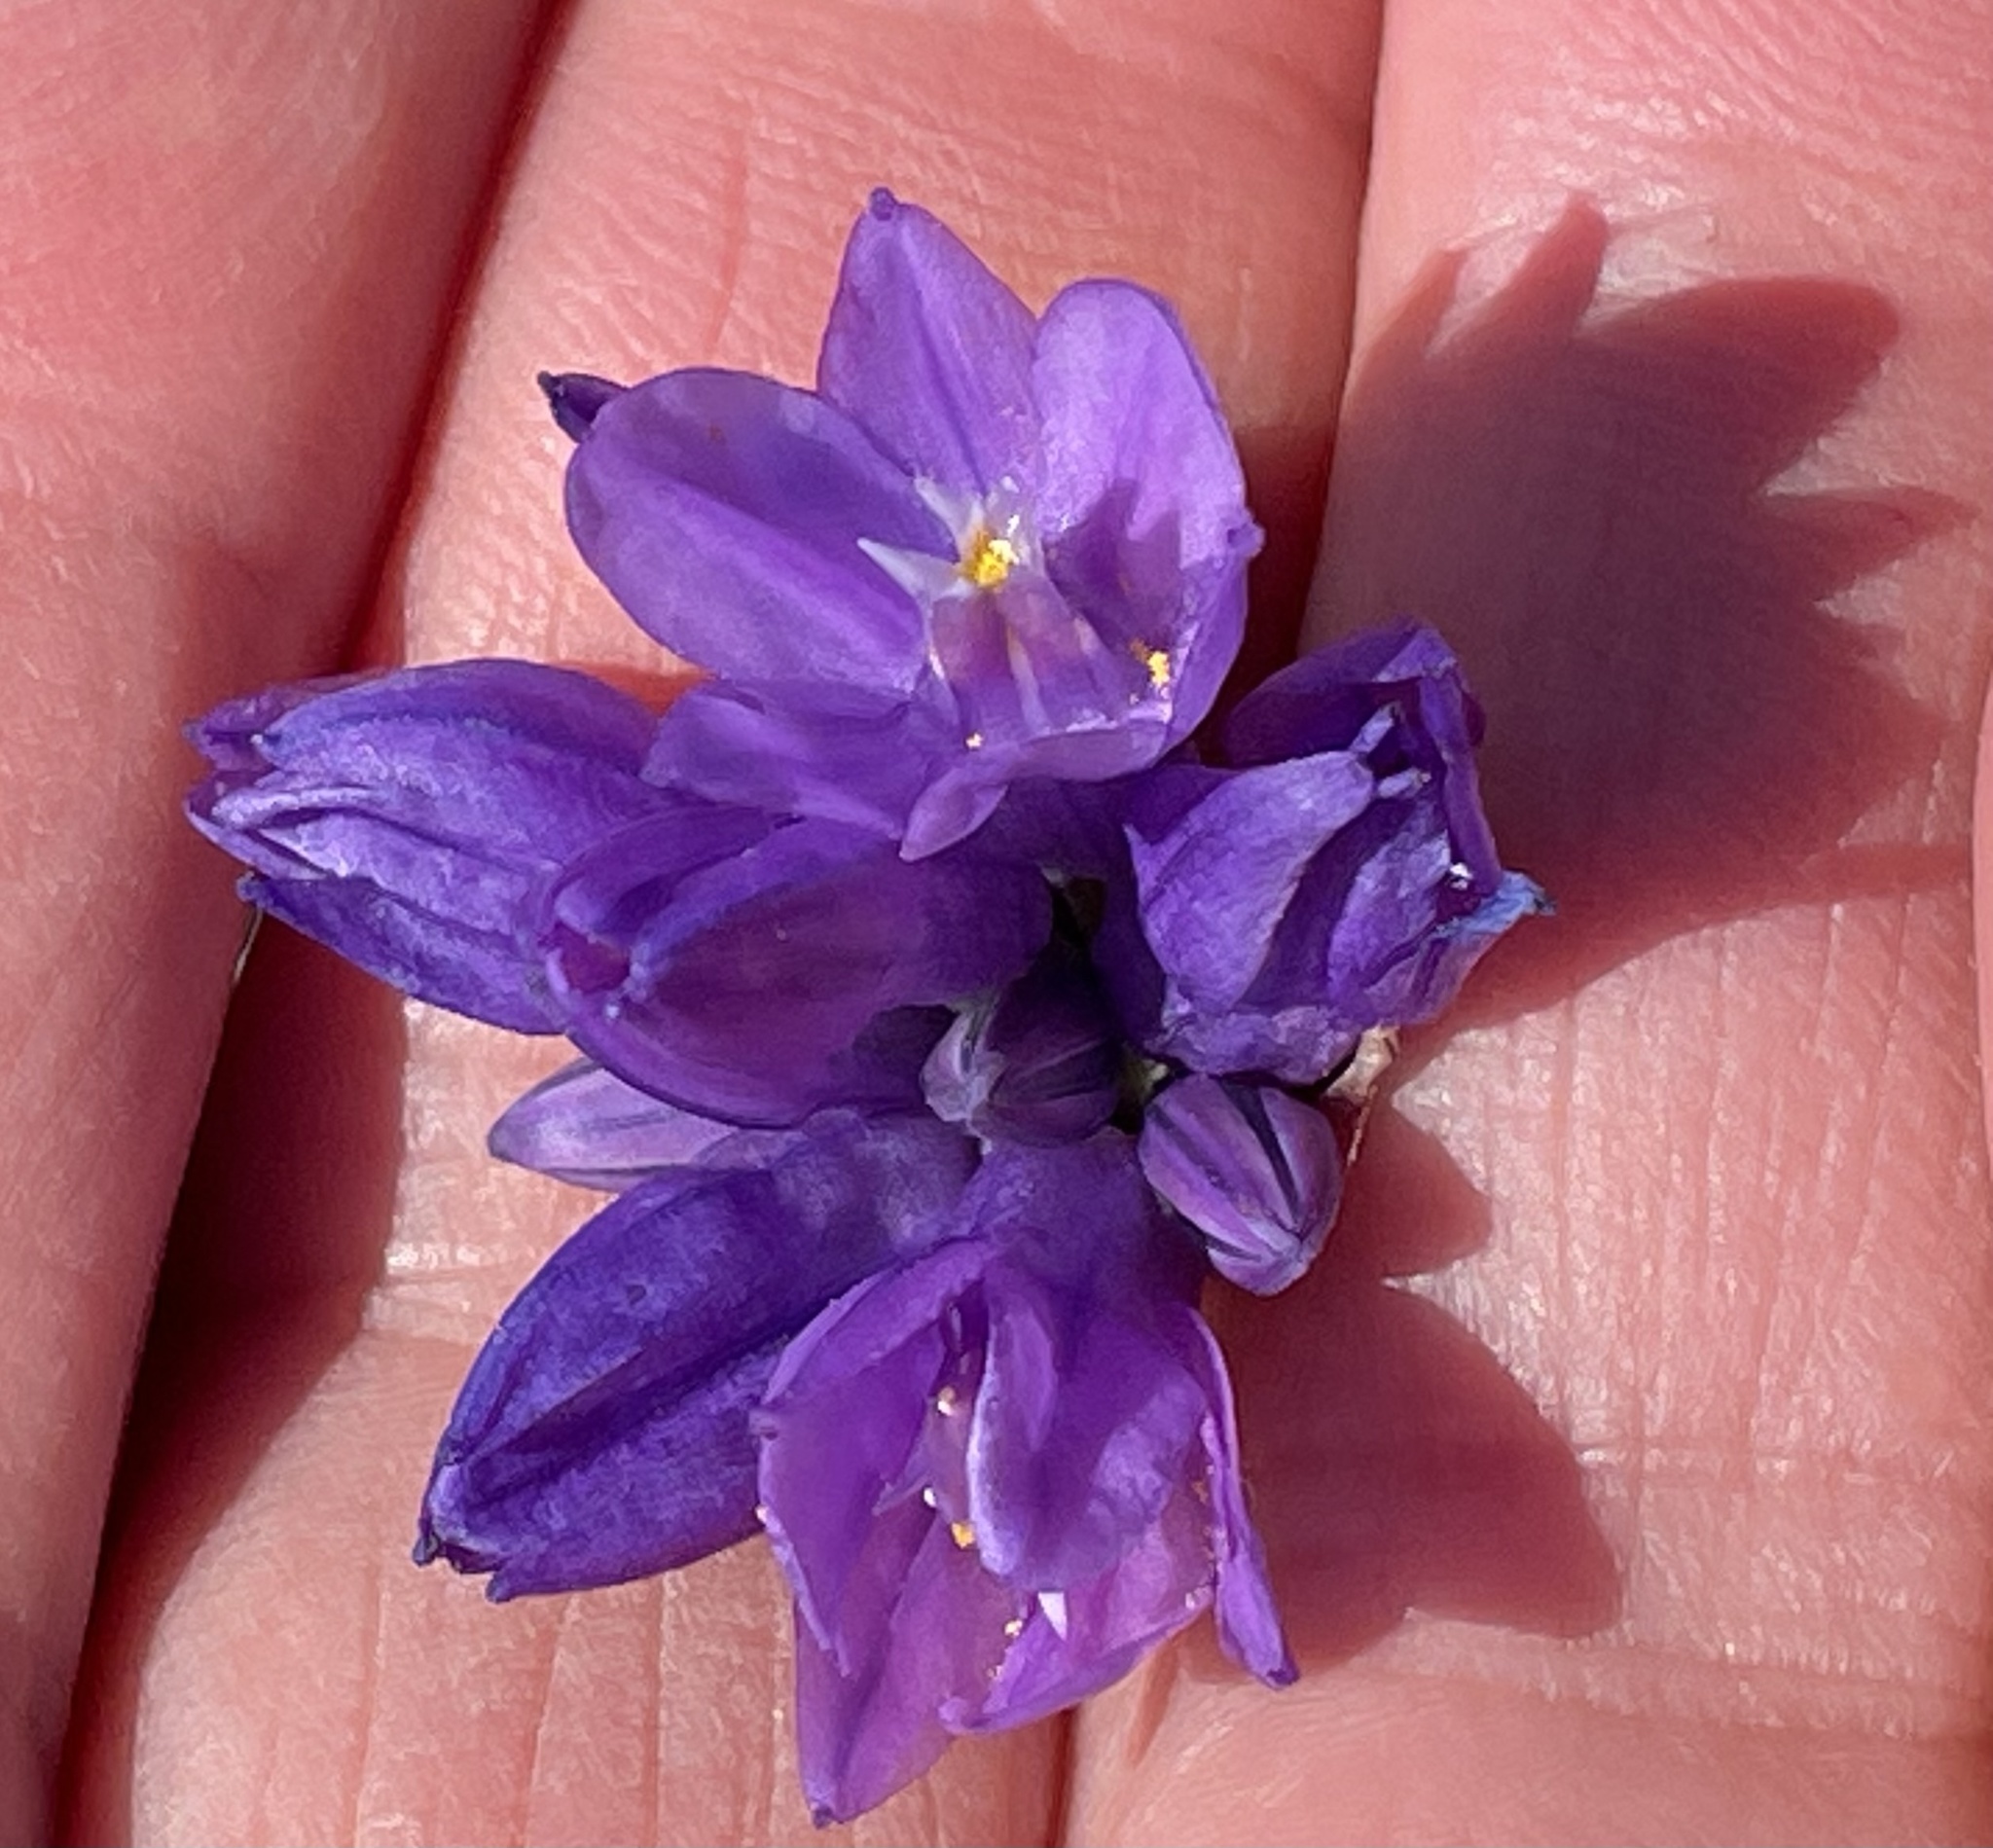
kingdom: Plantae
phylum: Tracheophyta
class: Liliopsida
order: Asparagales
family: Asparagaceae
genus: Dipterostemon
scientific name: Dipterostemon capitatus
